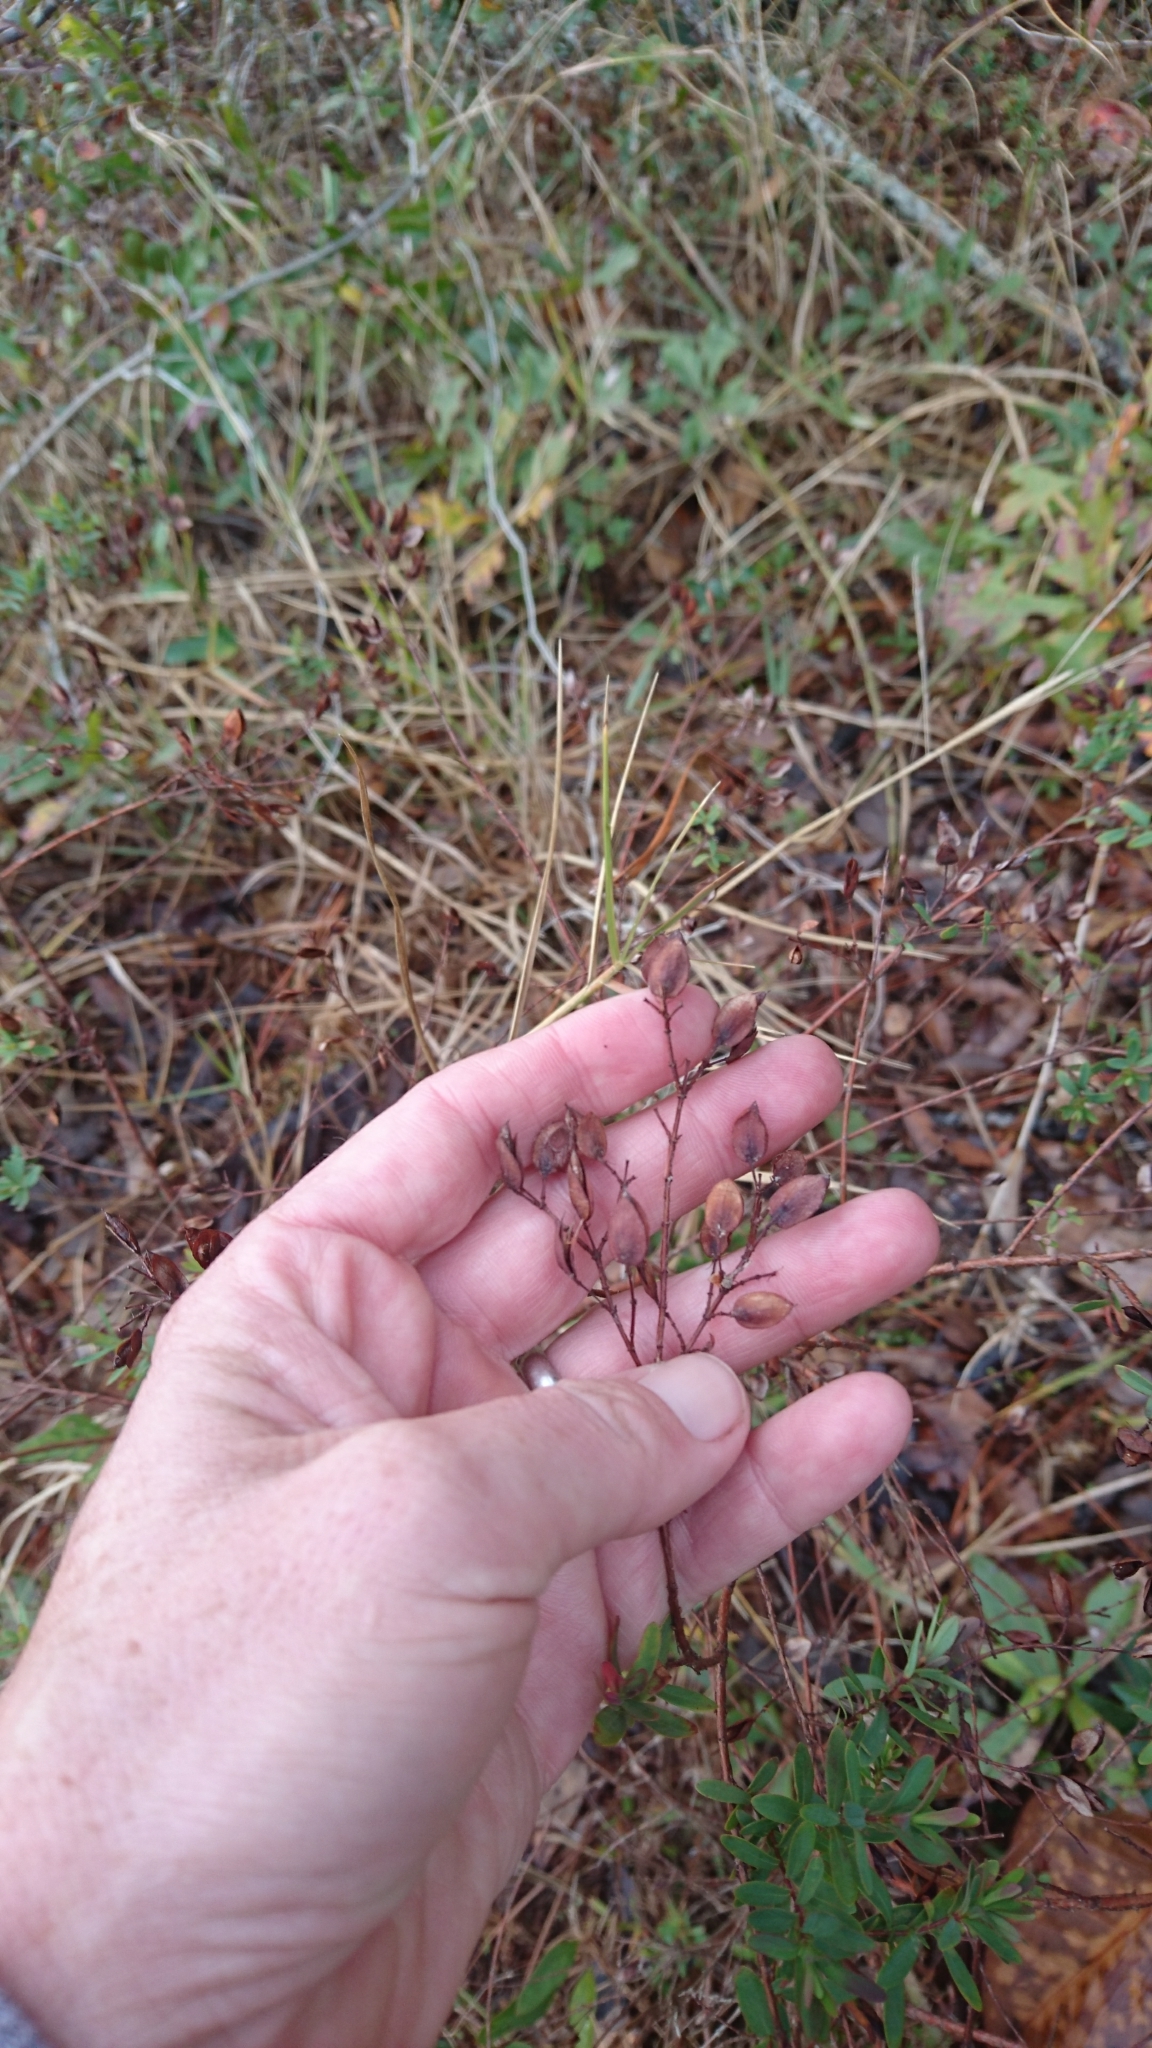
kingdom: Plantae
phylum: Tracheophyta
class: Magnoliopsida
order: Malpighiales
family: Hypericaceae
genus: Hypericum
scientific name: Hypericum hypericoides
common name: St. andrew's cross
